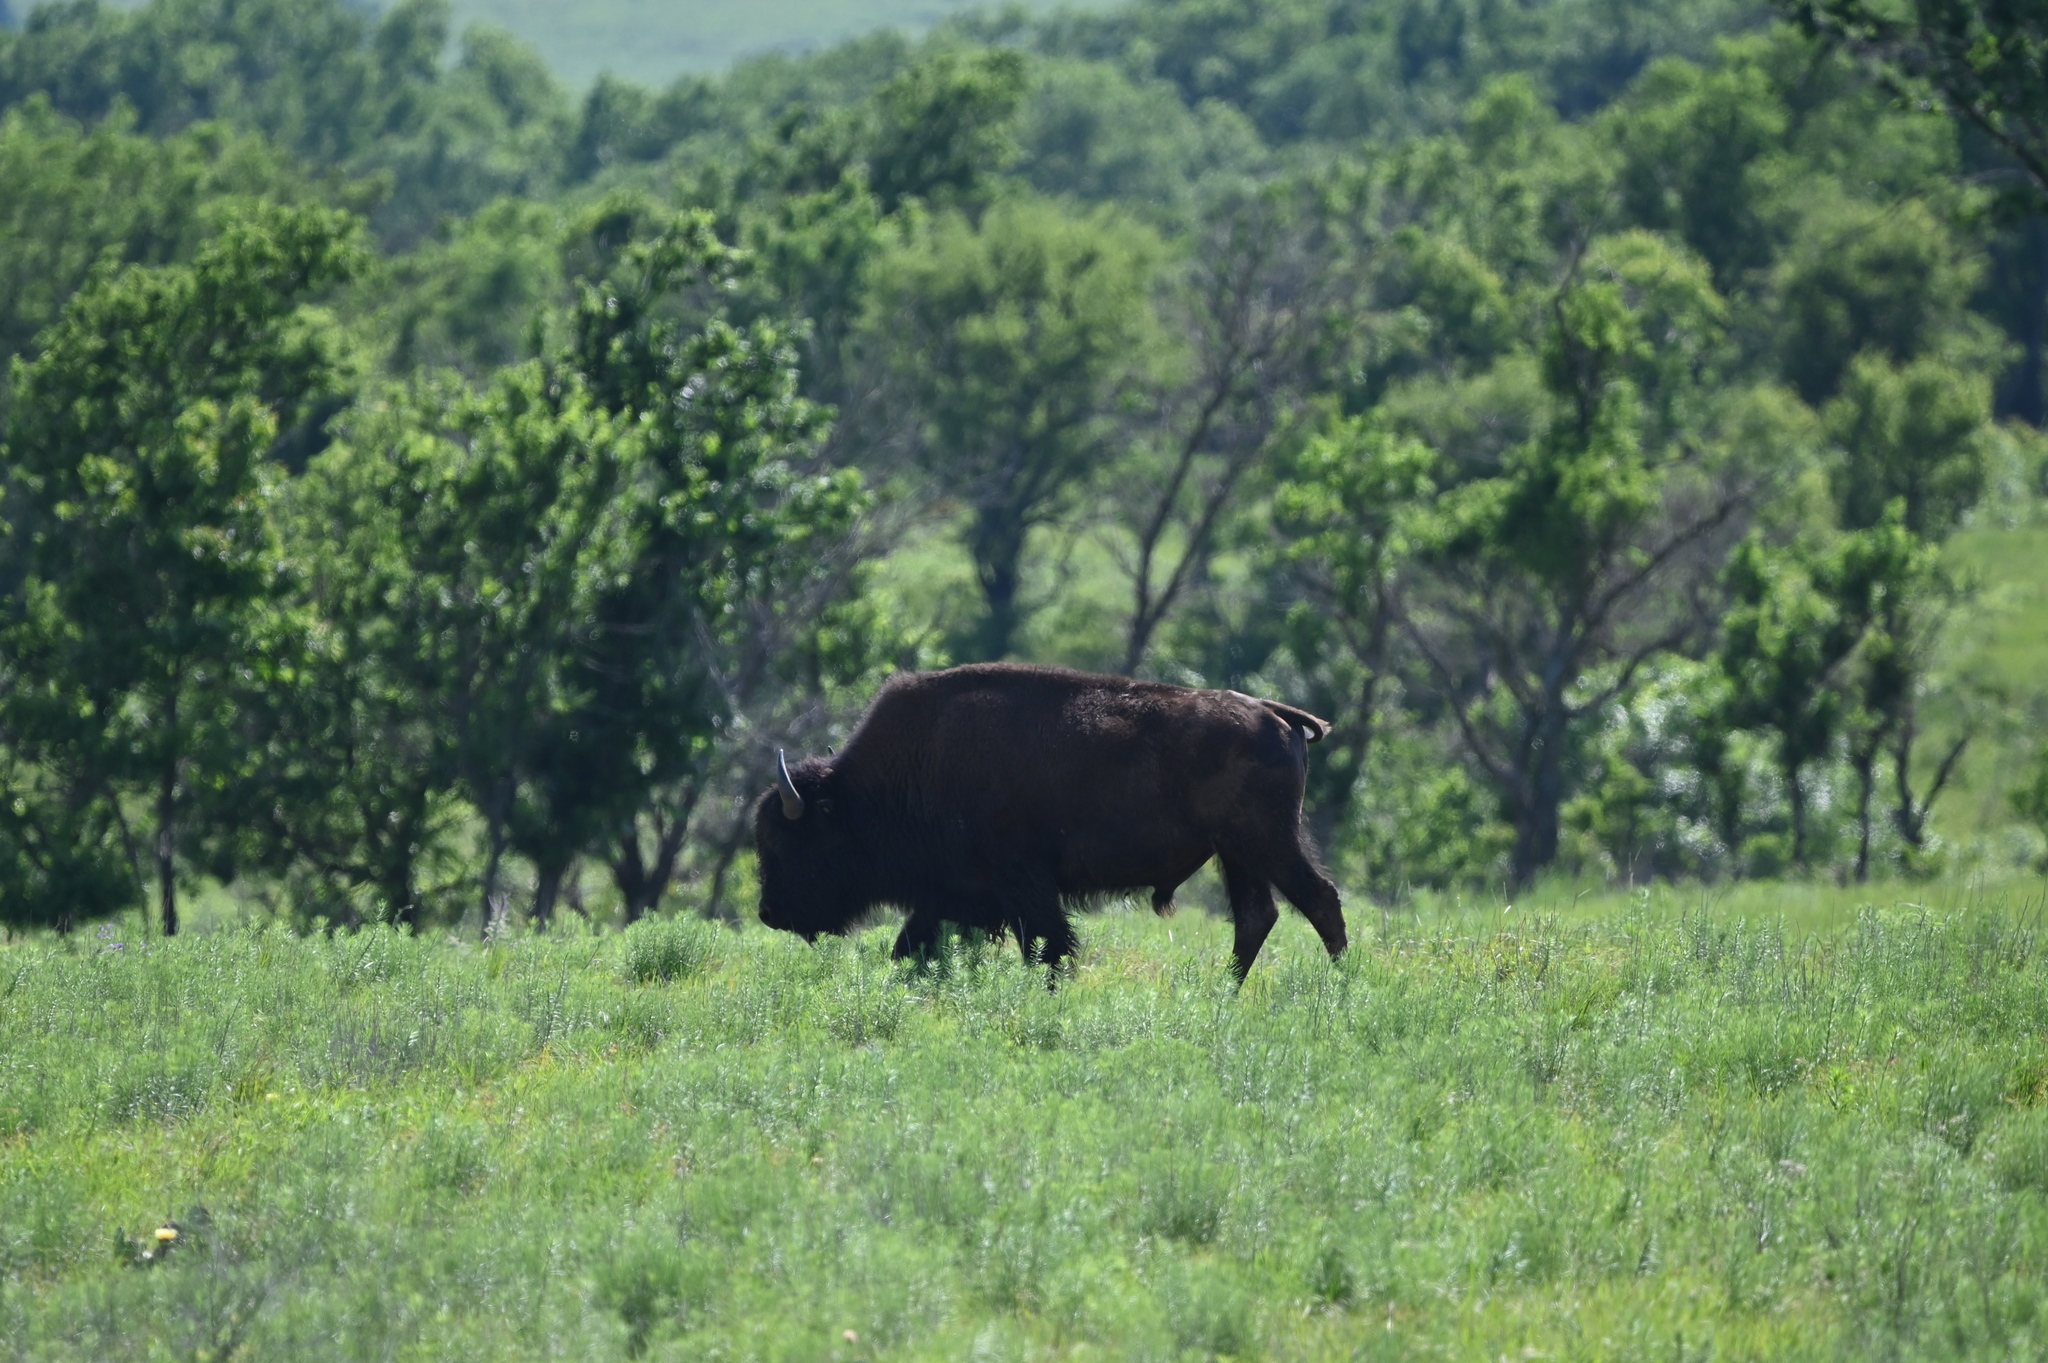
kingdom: Animalia
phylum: Chordata
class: Mammalia
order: Artiodactyla
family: Bovidae
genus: Bison
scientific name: Bison bison
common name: American bison
